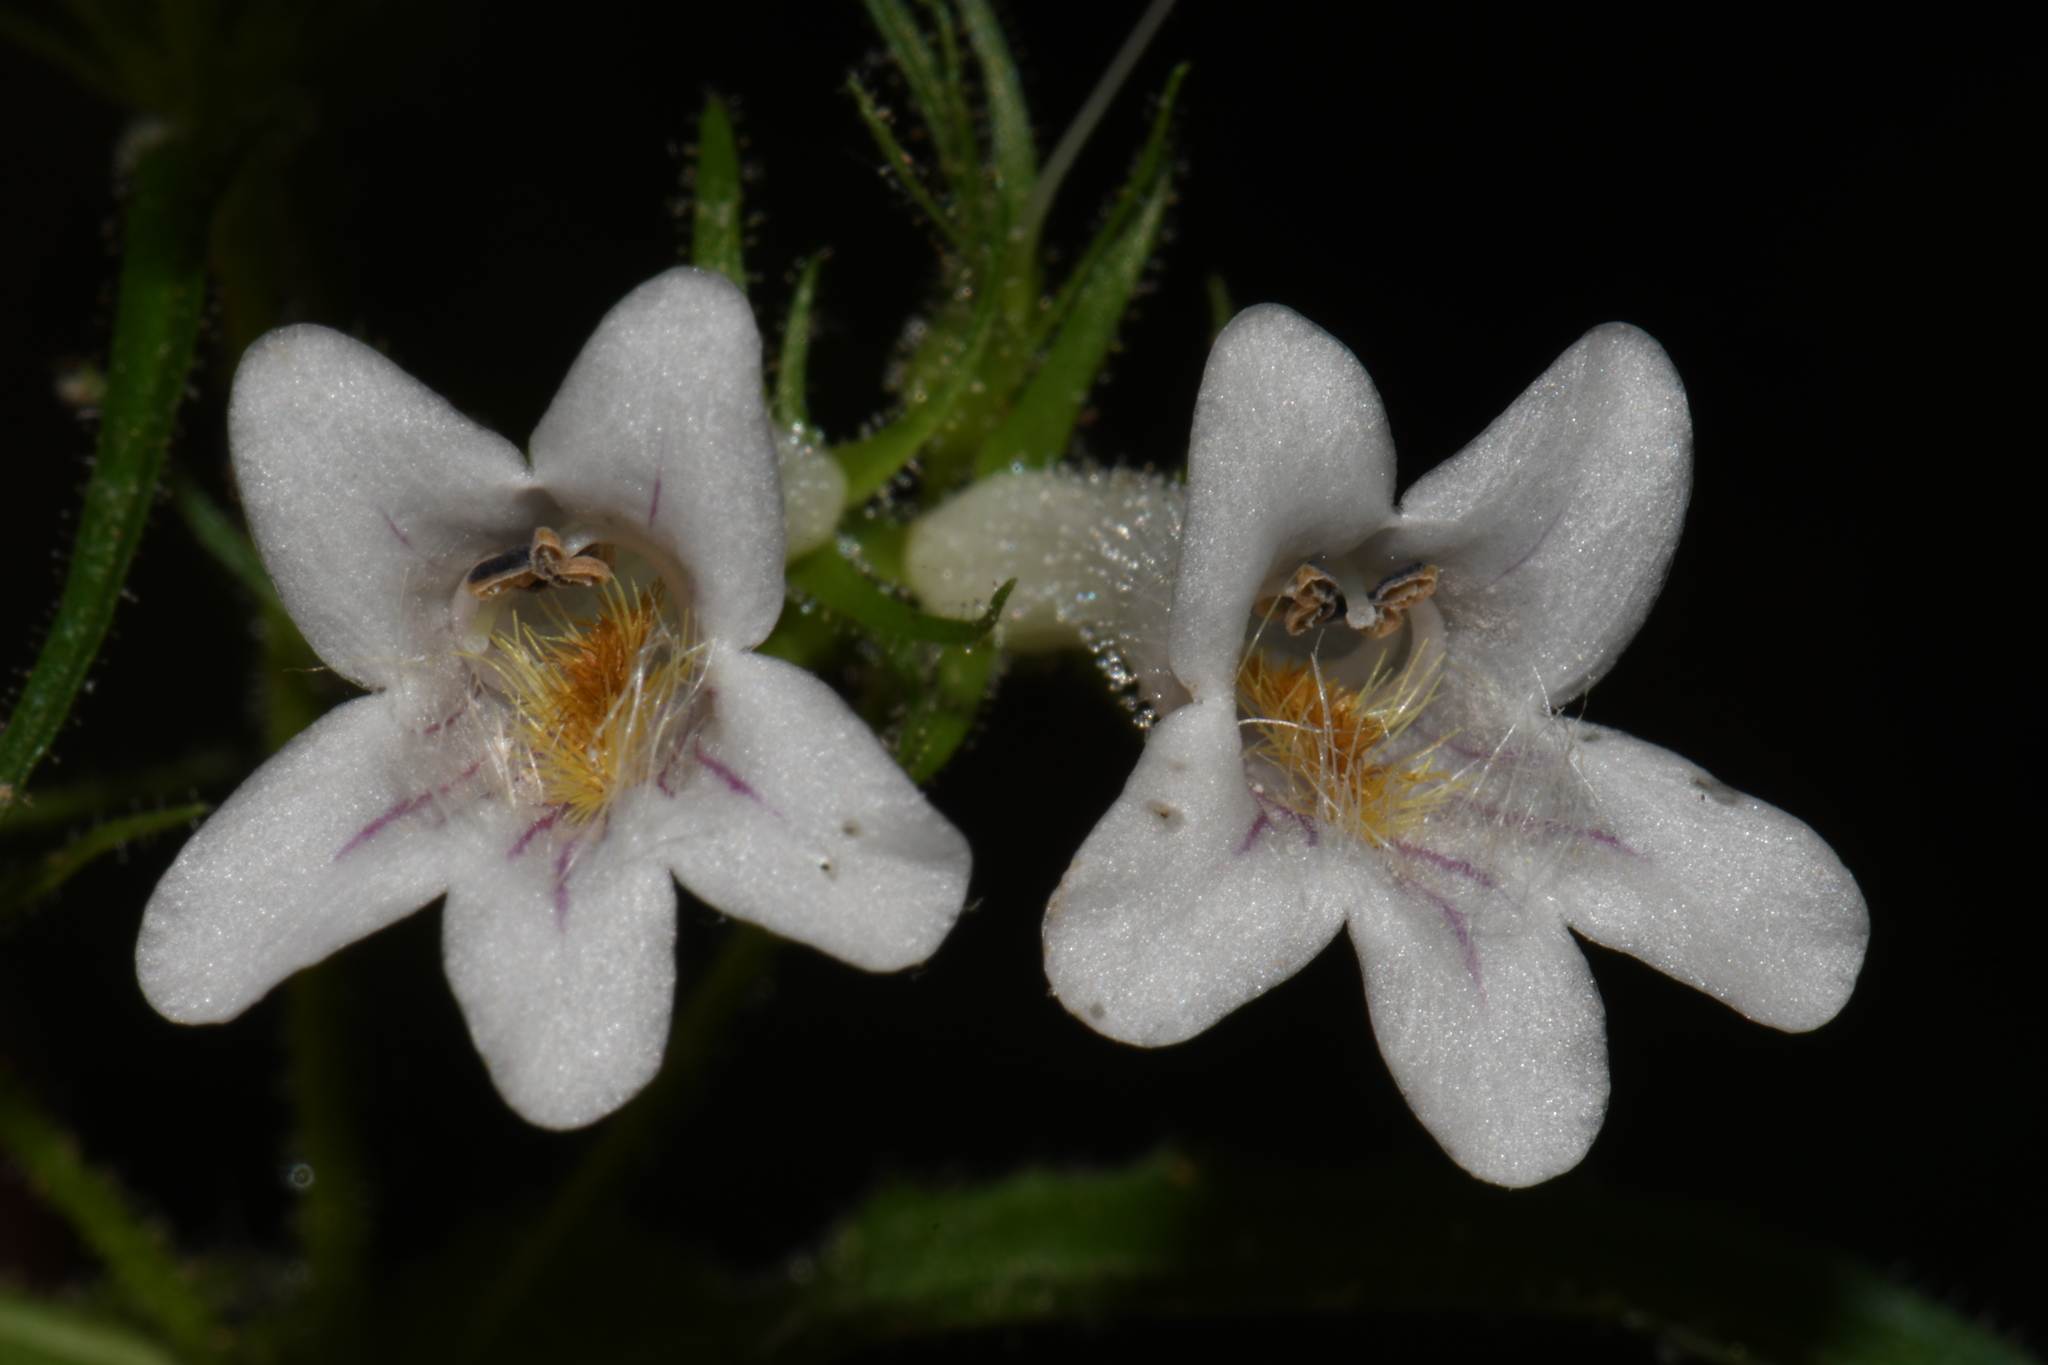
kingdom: Plantae
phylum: Tracheophyta
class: Magnoliopsida
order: Lamiales
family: Plantaginaceae
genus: Penstemon
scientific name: Penstemon kralii
